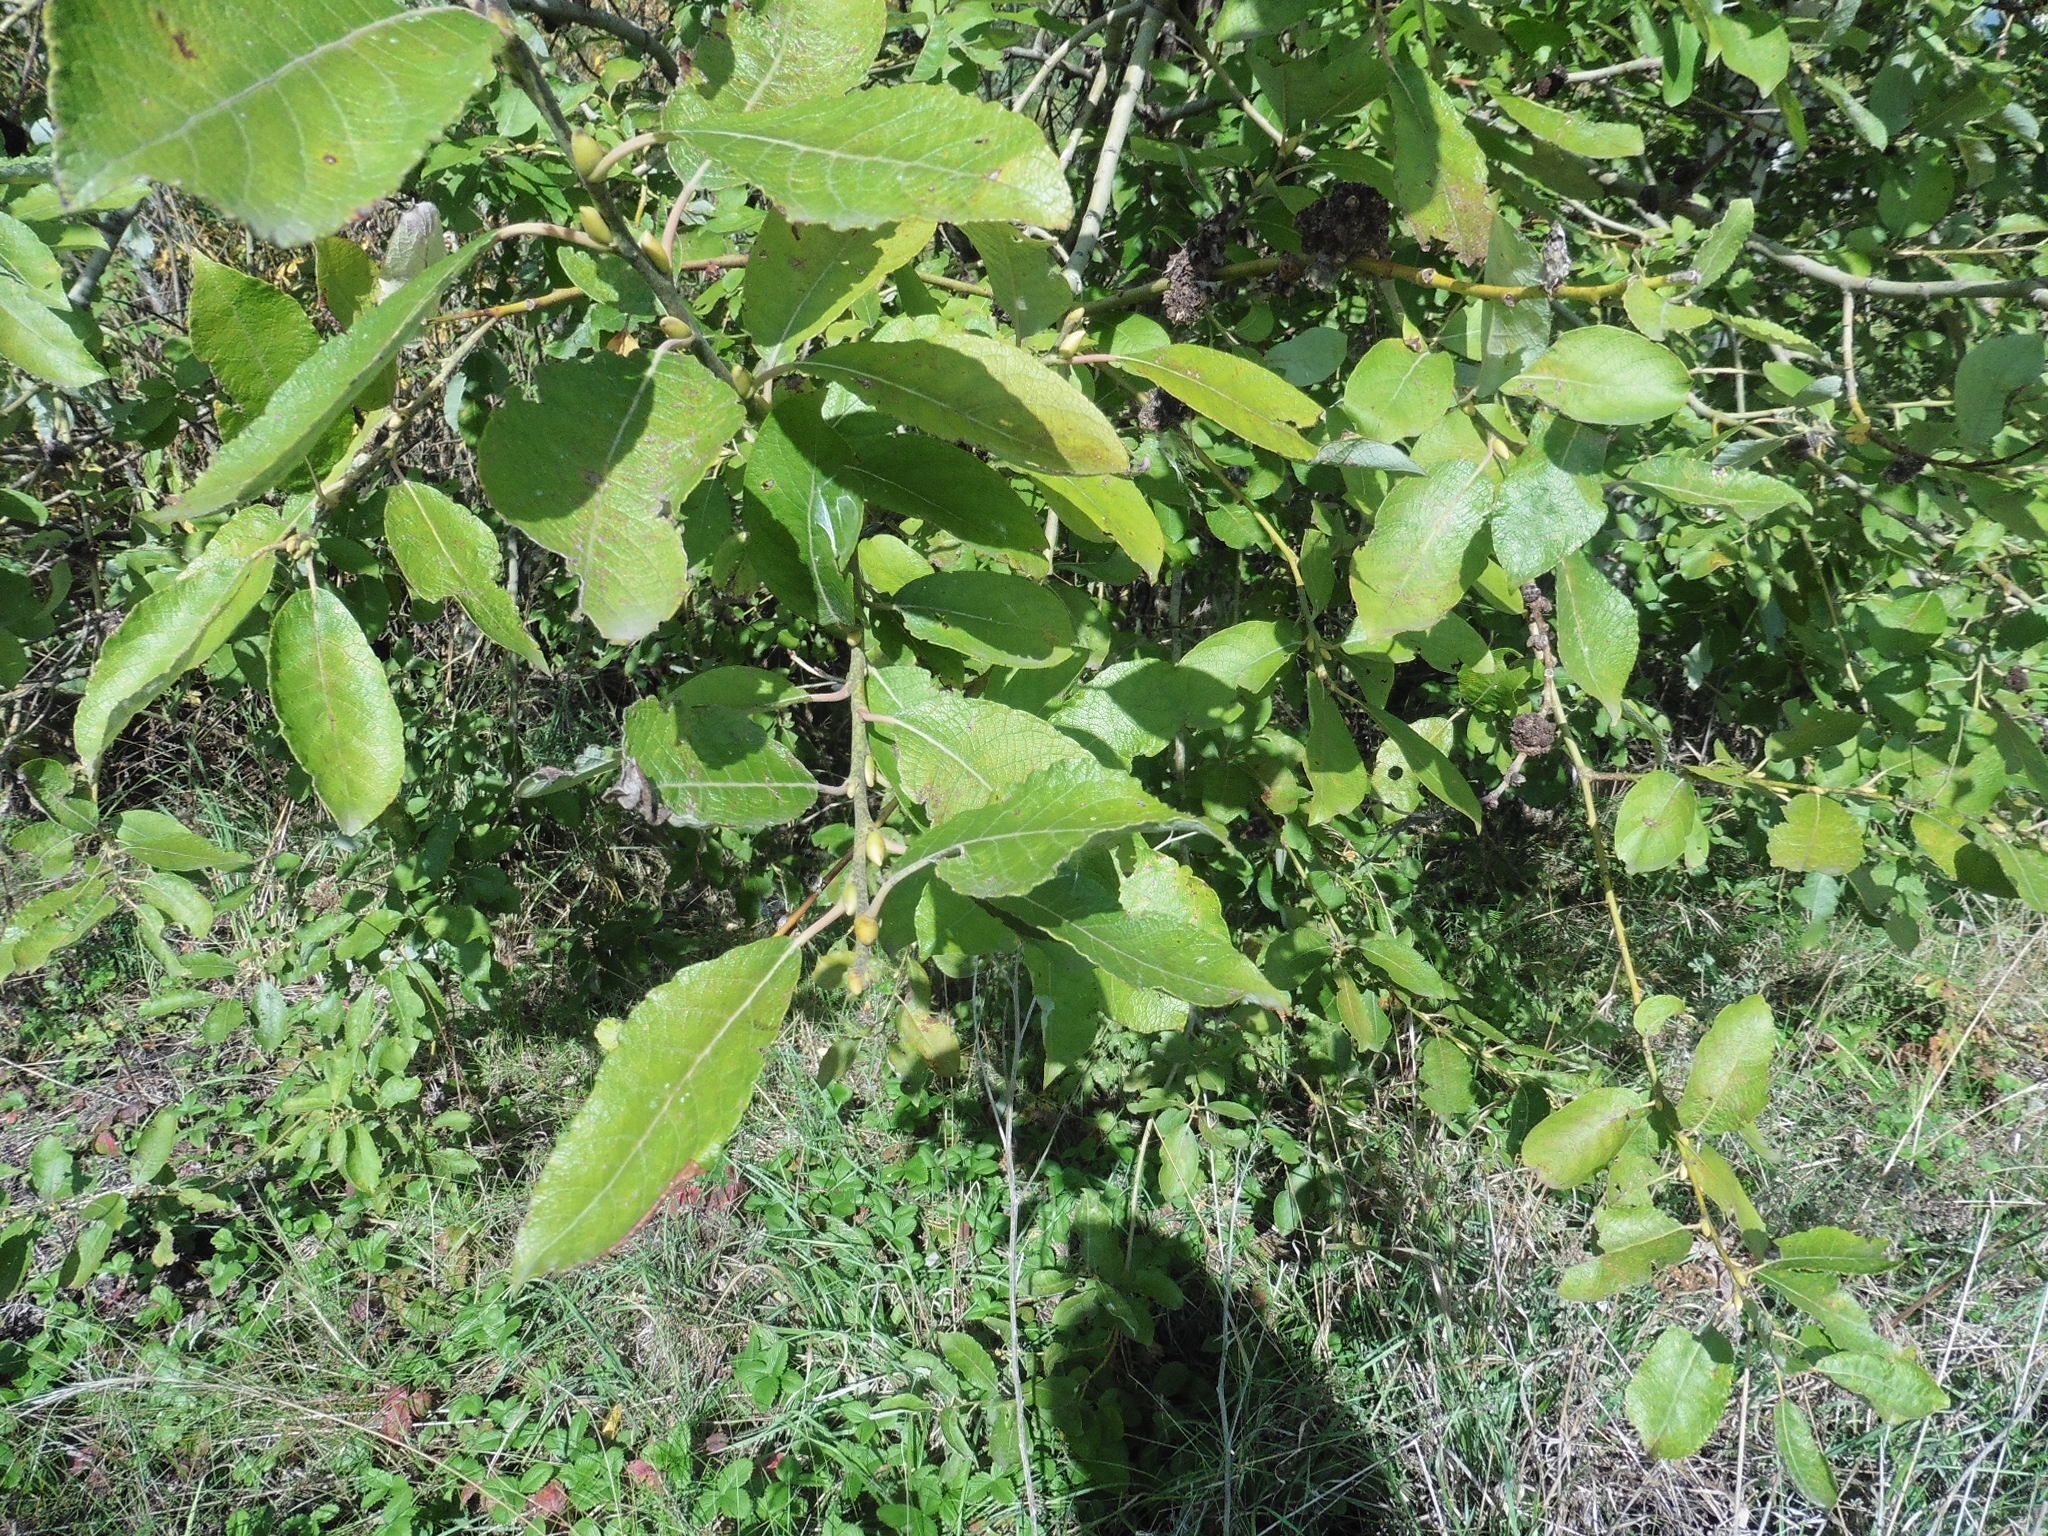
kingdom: Plantae
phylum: Tracheophyta
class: Magnoliopsida
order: Malpighiales
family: Salicaceae
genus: Salix
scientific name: Salix caprea
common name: Goat willow
